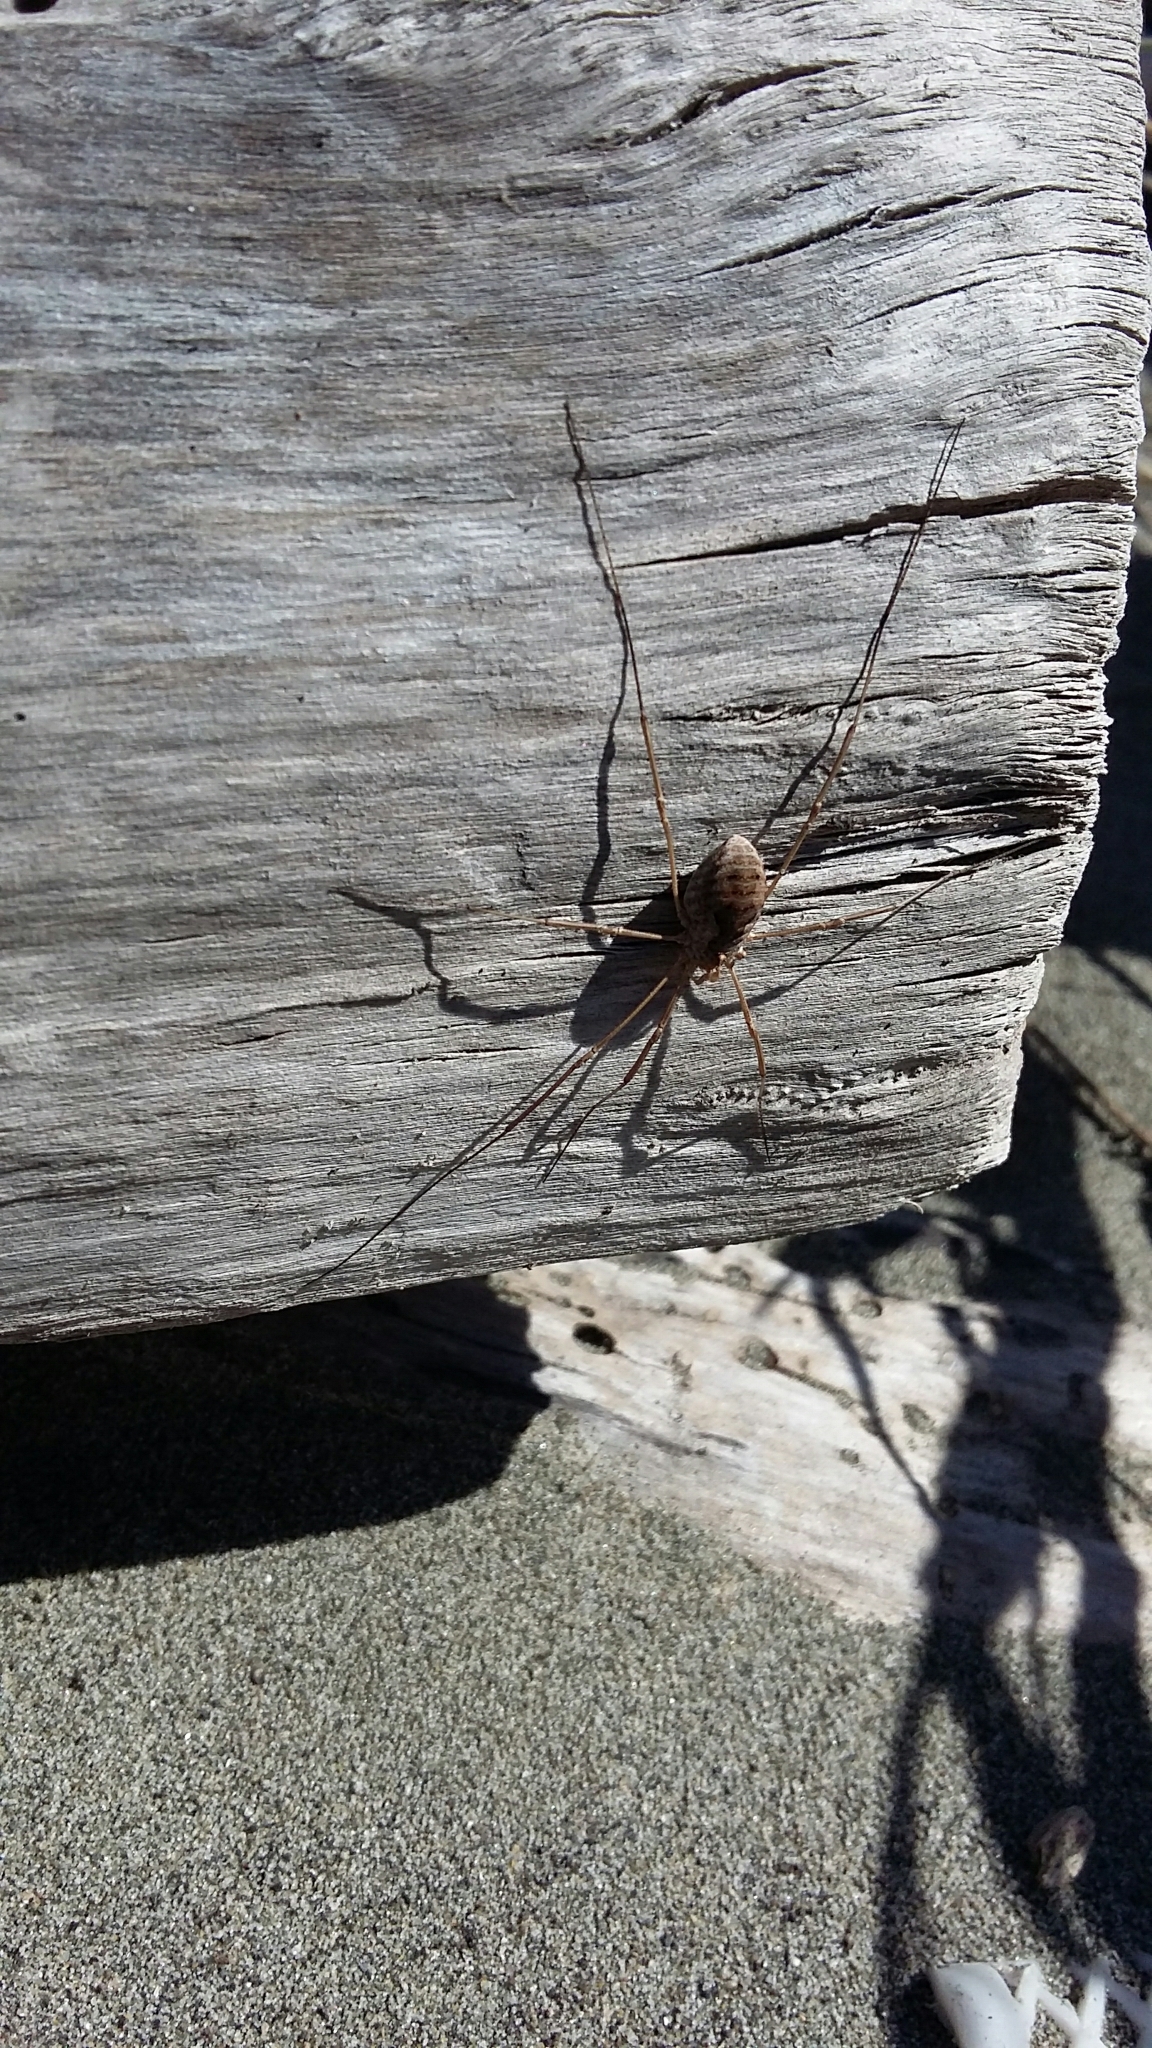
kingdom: Animalia
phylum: Arthropoda
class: Arachnida
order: Opiliones
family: Phalangiidae
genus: Phalangium
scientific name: Phalangium opilio
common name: Daddy longleg
